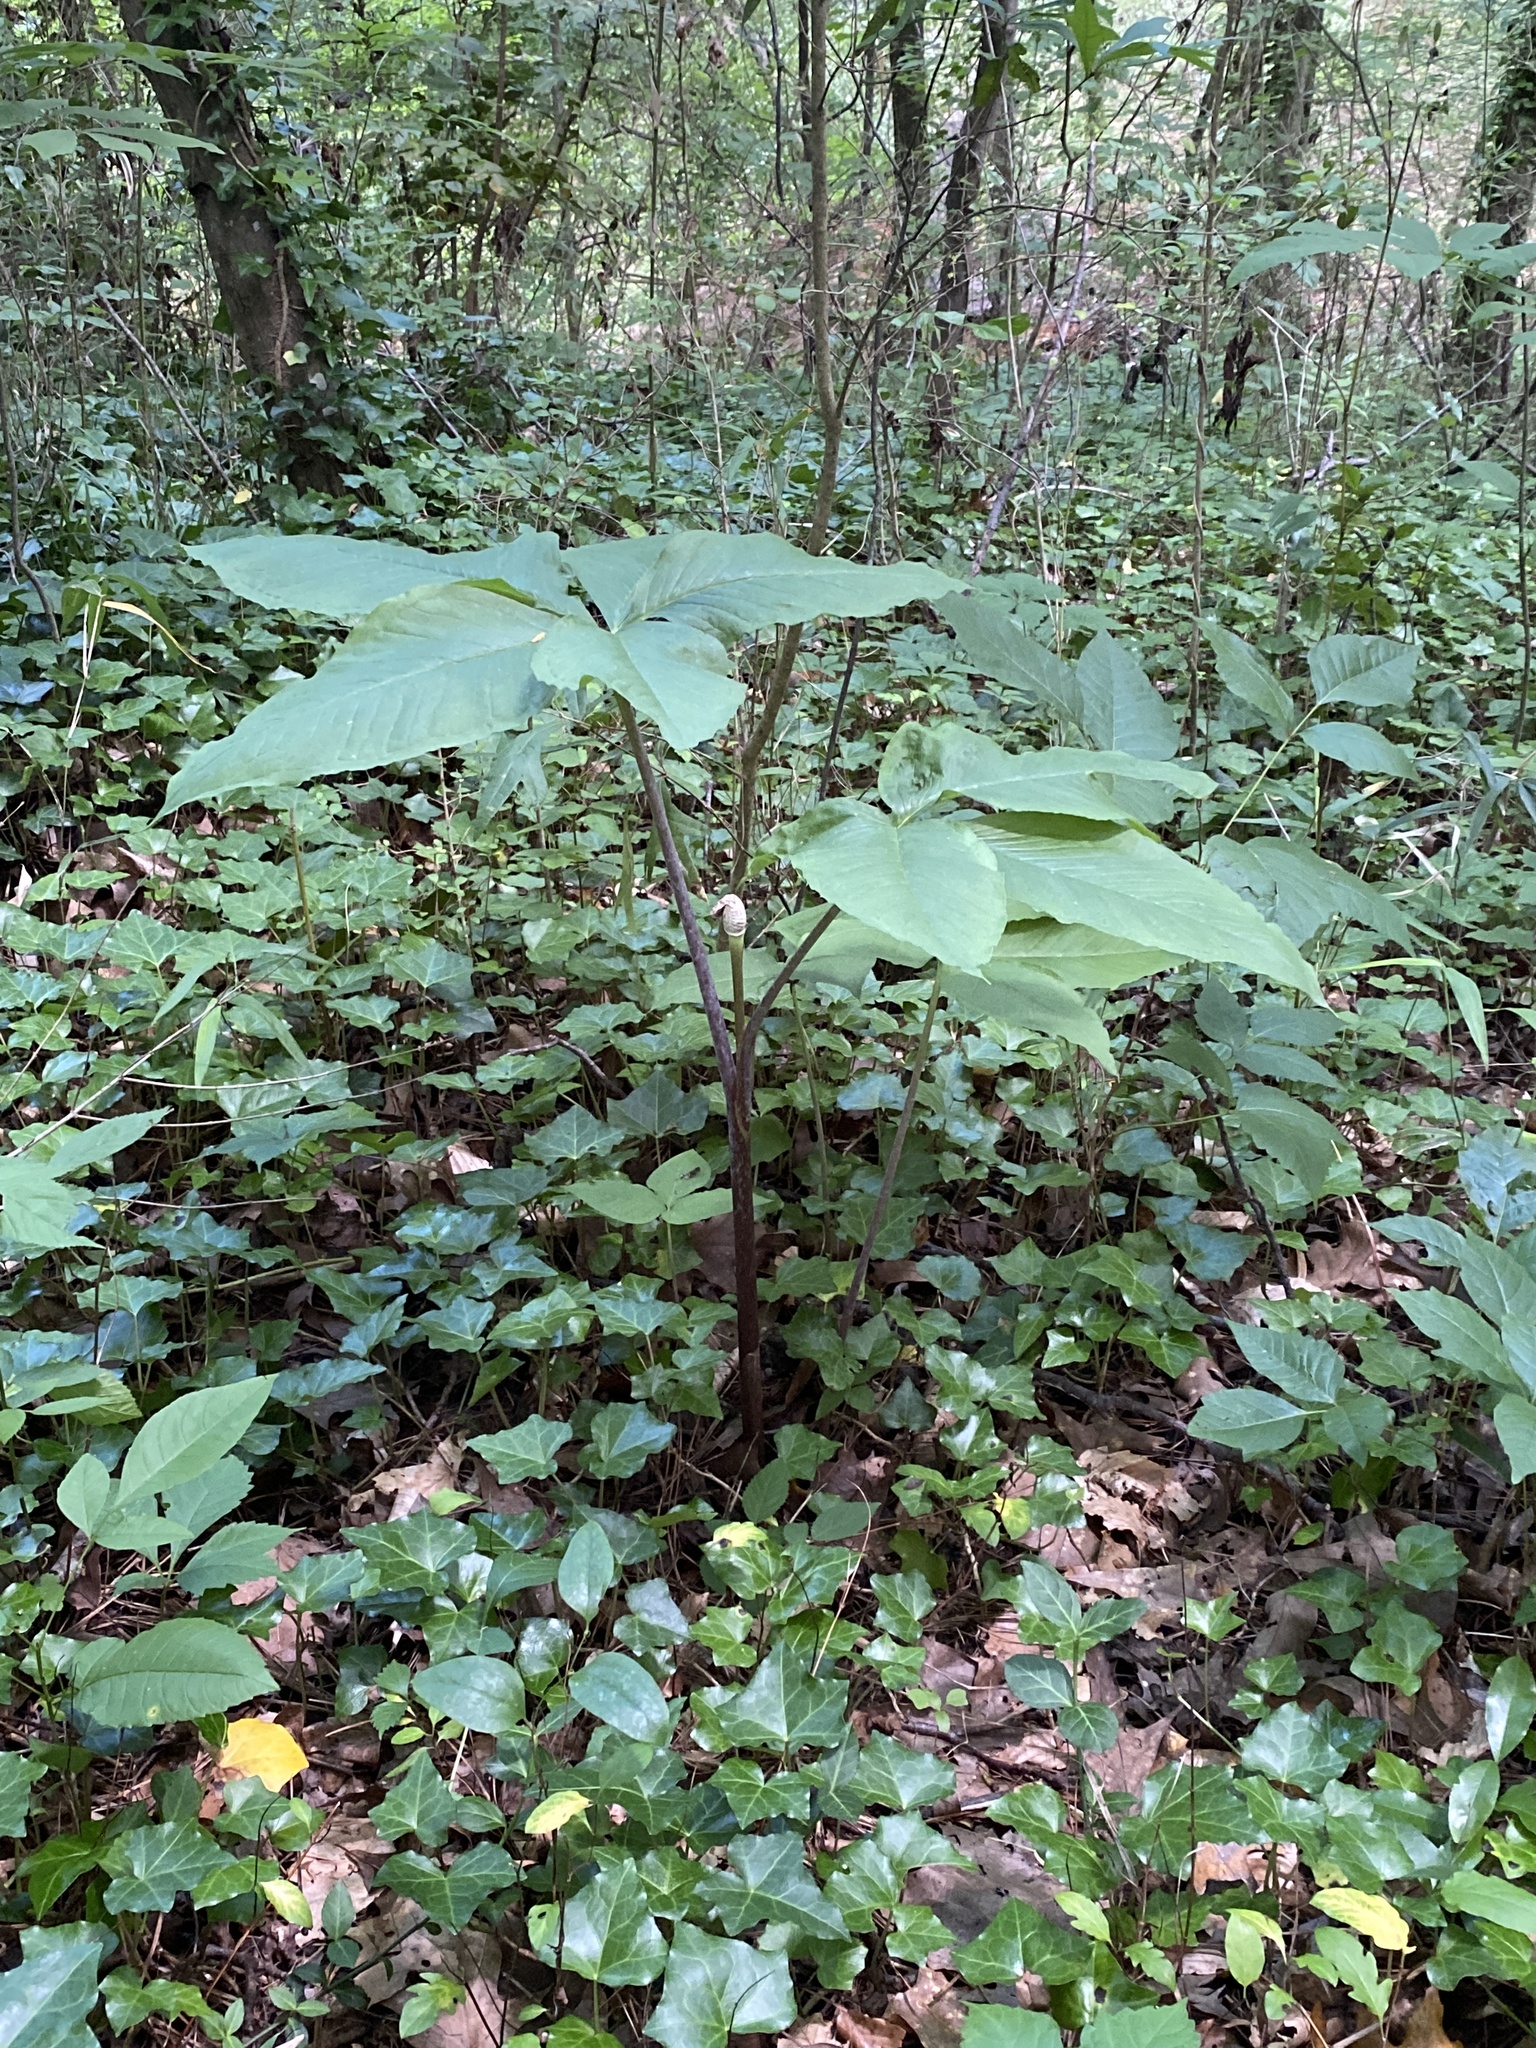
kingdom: Plantae
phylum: Tracheophyta
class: Liliopsida
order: Alismatales
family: Araceae
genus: Arisaema
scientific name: Arisaema quinatum
